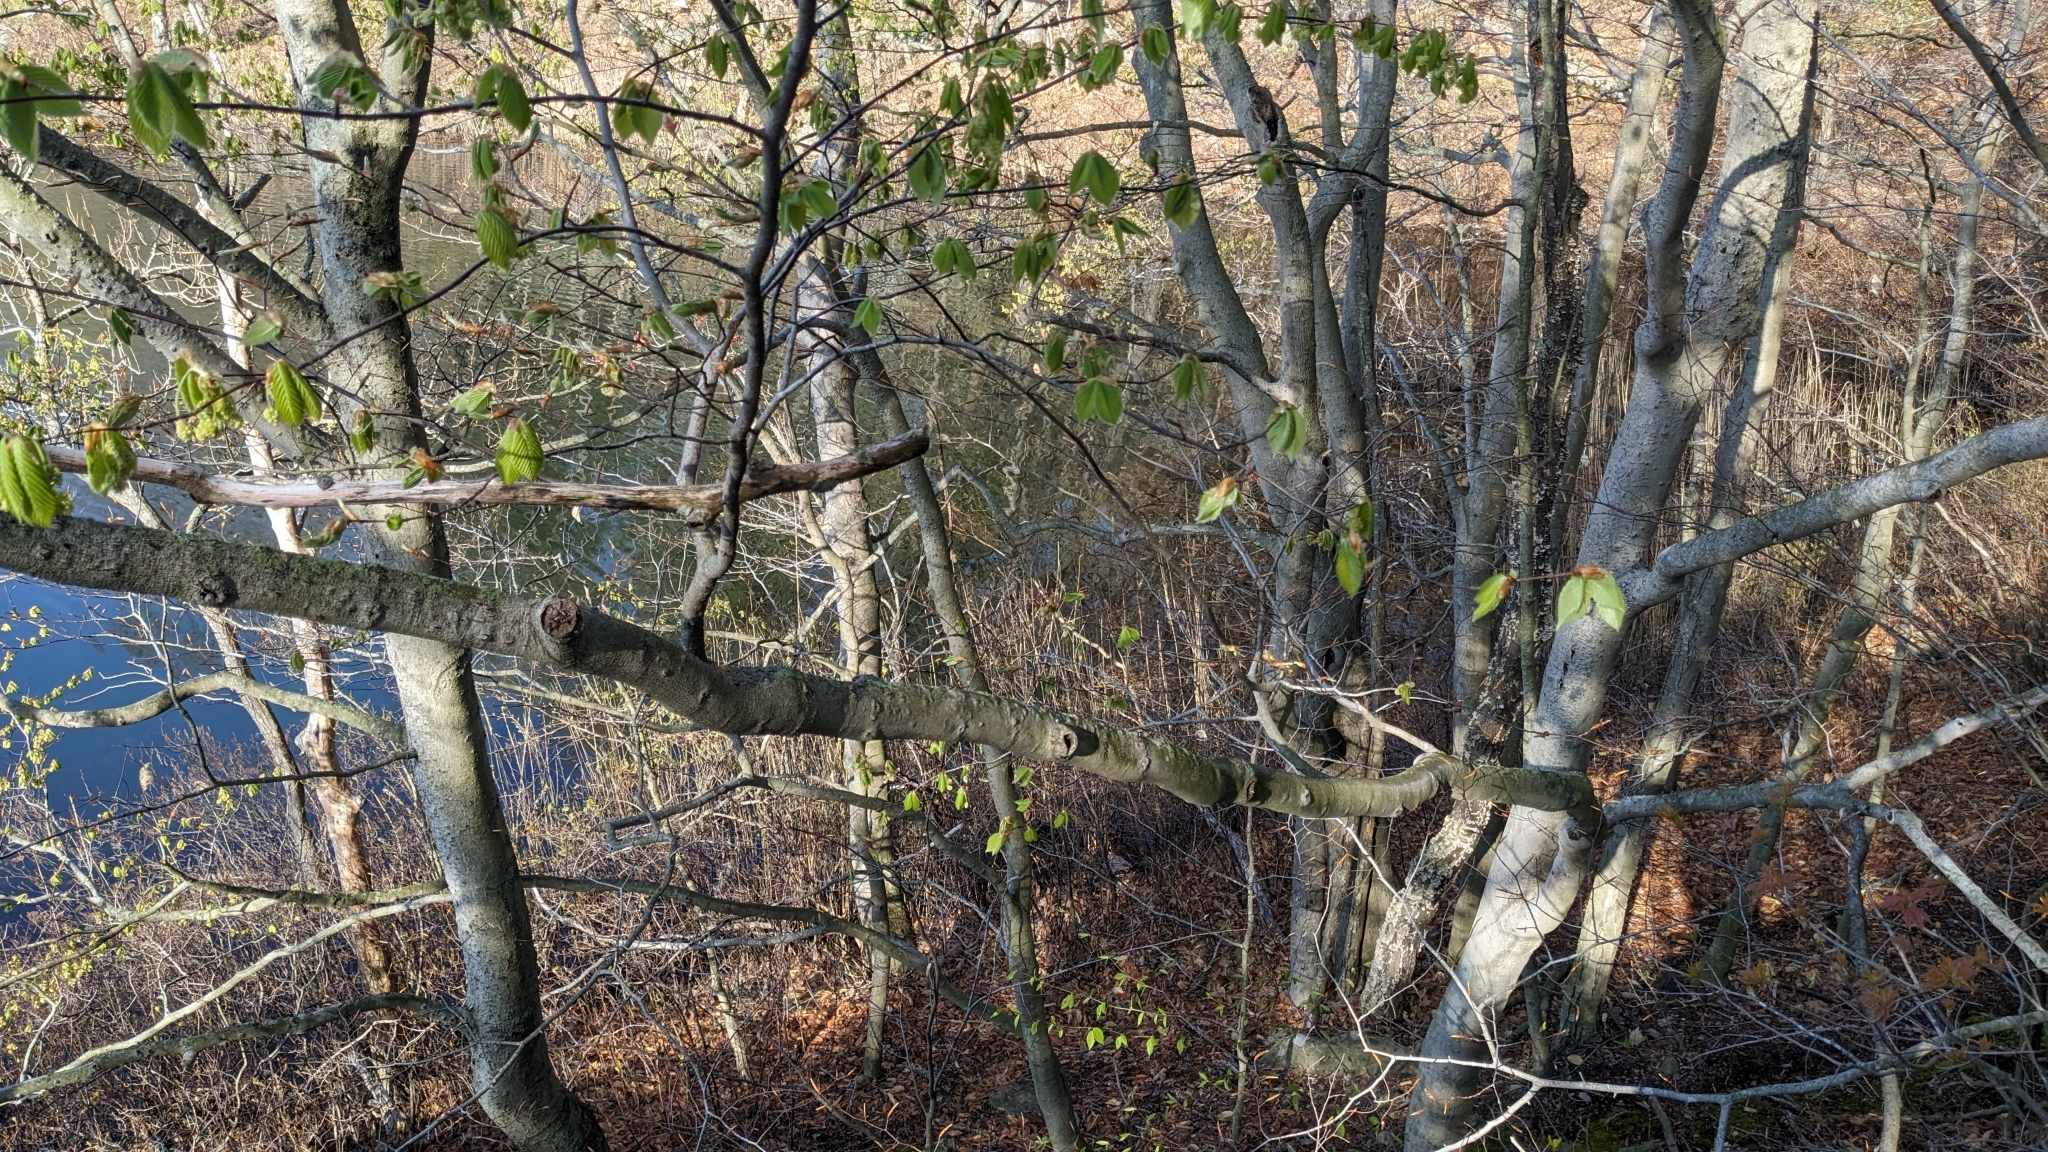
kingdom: Plantae
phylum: Tracheophyta
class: Magnoliopsida
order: Fagales
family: Fagaceae
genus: Fagus
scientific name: Fagus grandifolia
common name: American beech
